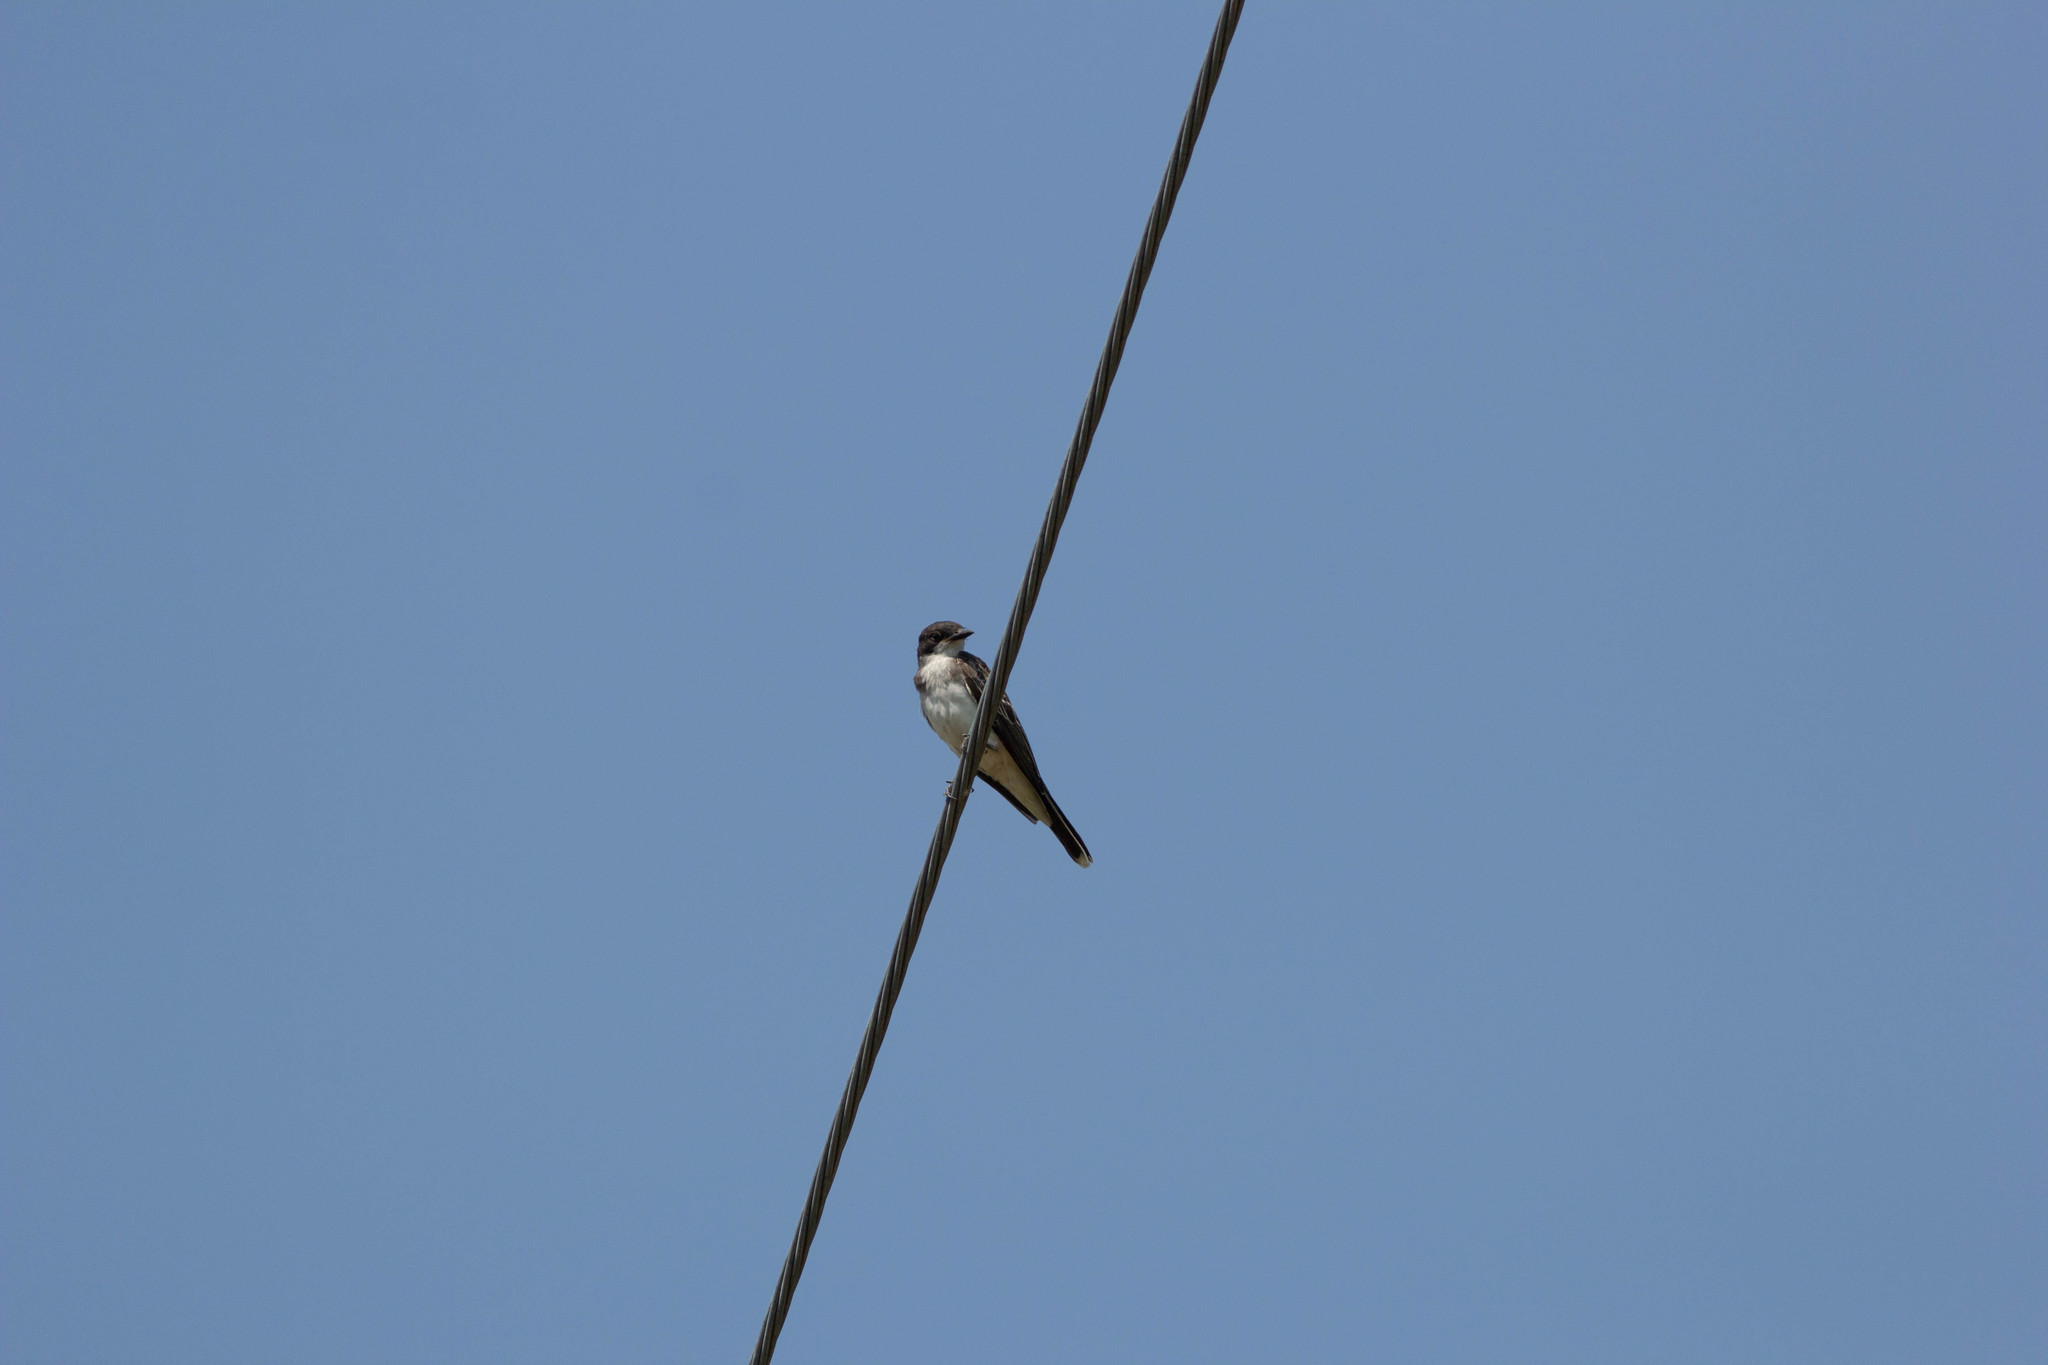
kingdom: Animalia
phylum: Chordata
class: Aves
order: Passeriformes
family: Tyrannidae
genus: Tyrannus
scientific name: Tyrannus tyrannus
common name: Eastern kingbird
